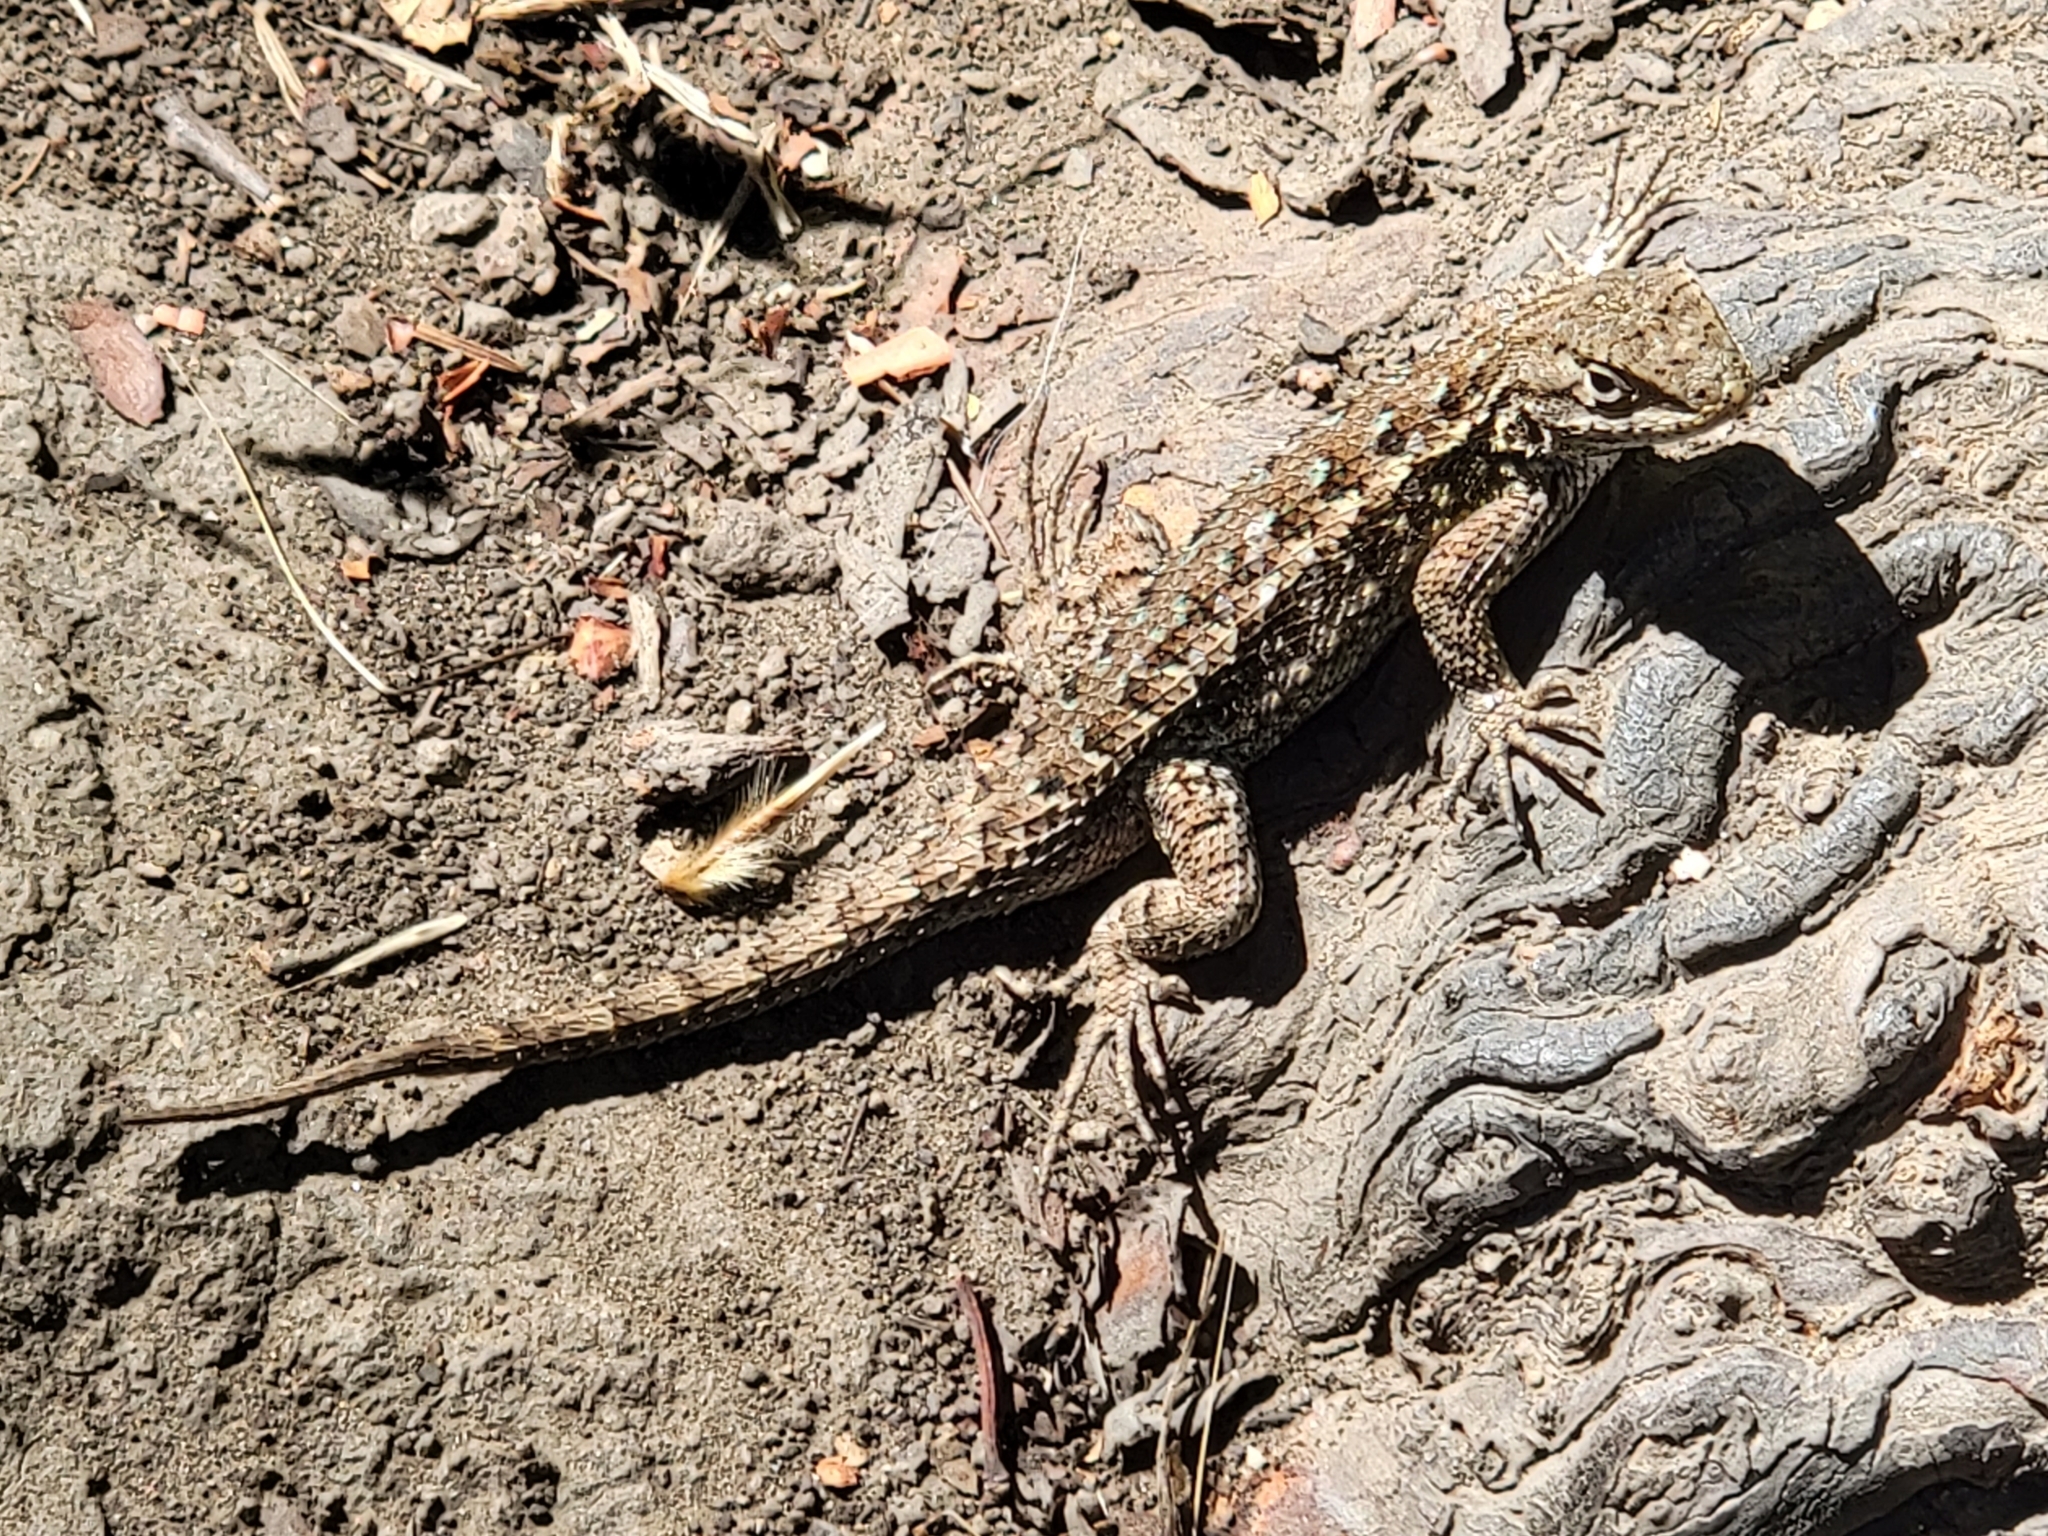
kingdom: Animalia
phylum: Chordata
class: Squamata
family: Phrynosomatidae
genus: Sceloporus
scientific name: Sceloporus occidentalis
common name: Western fence lizard
